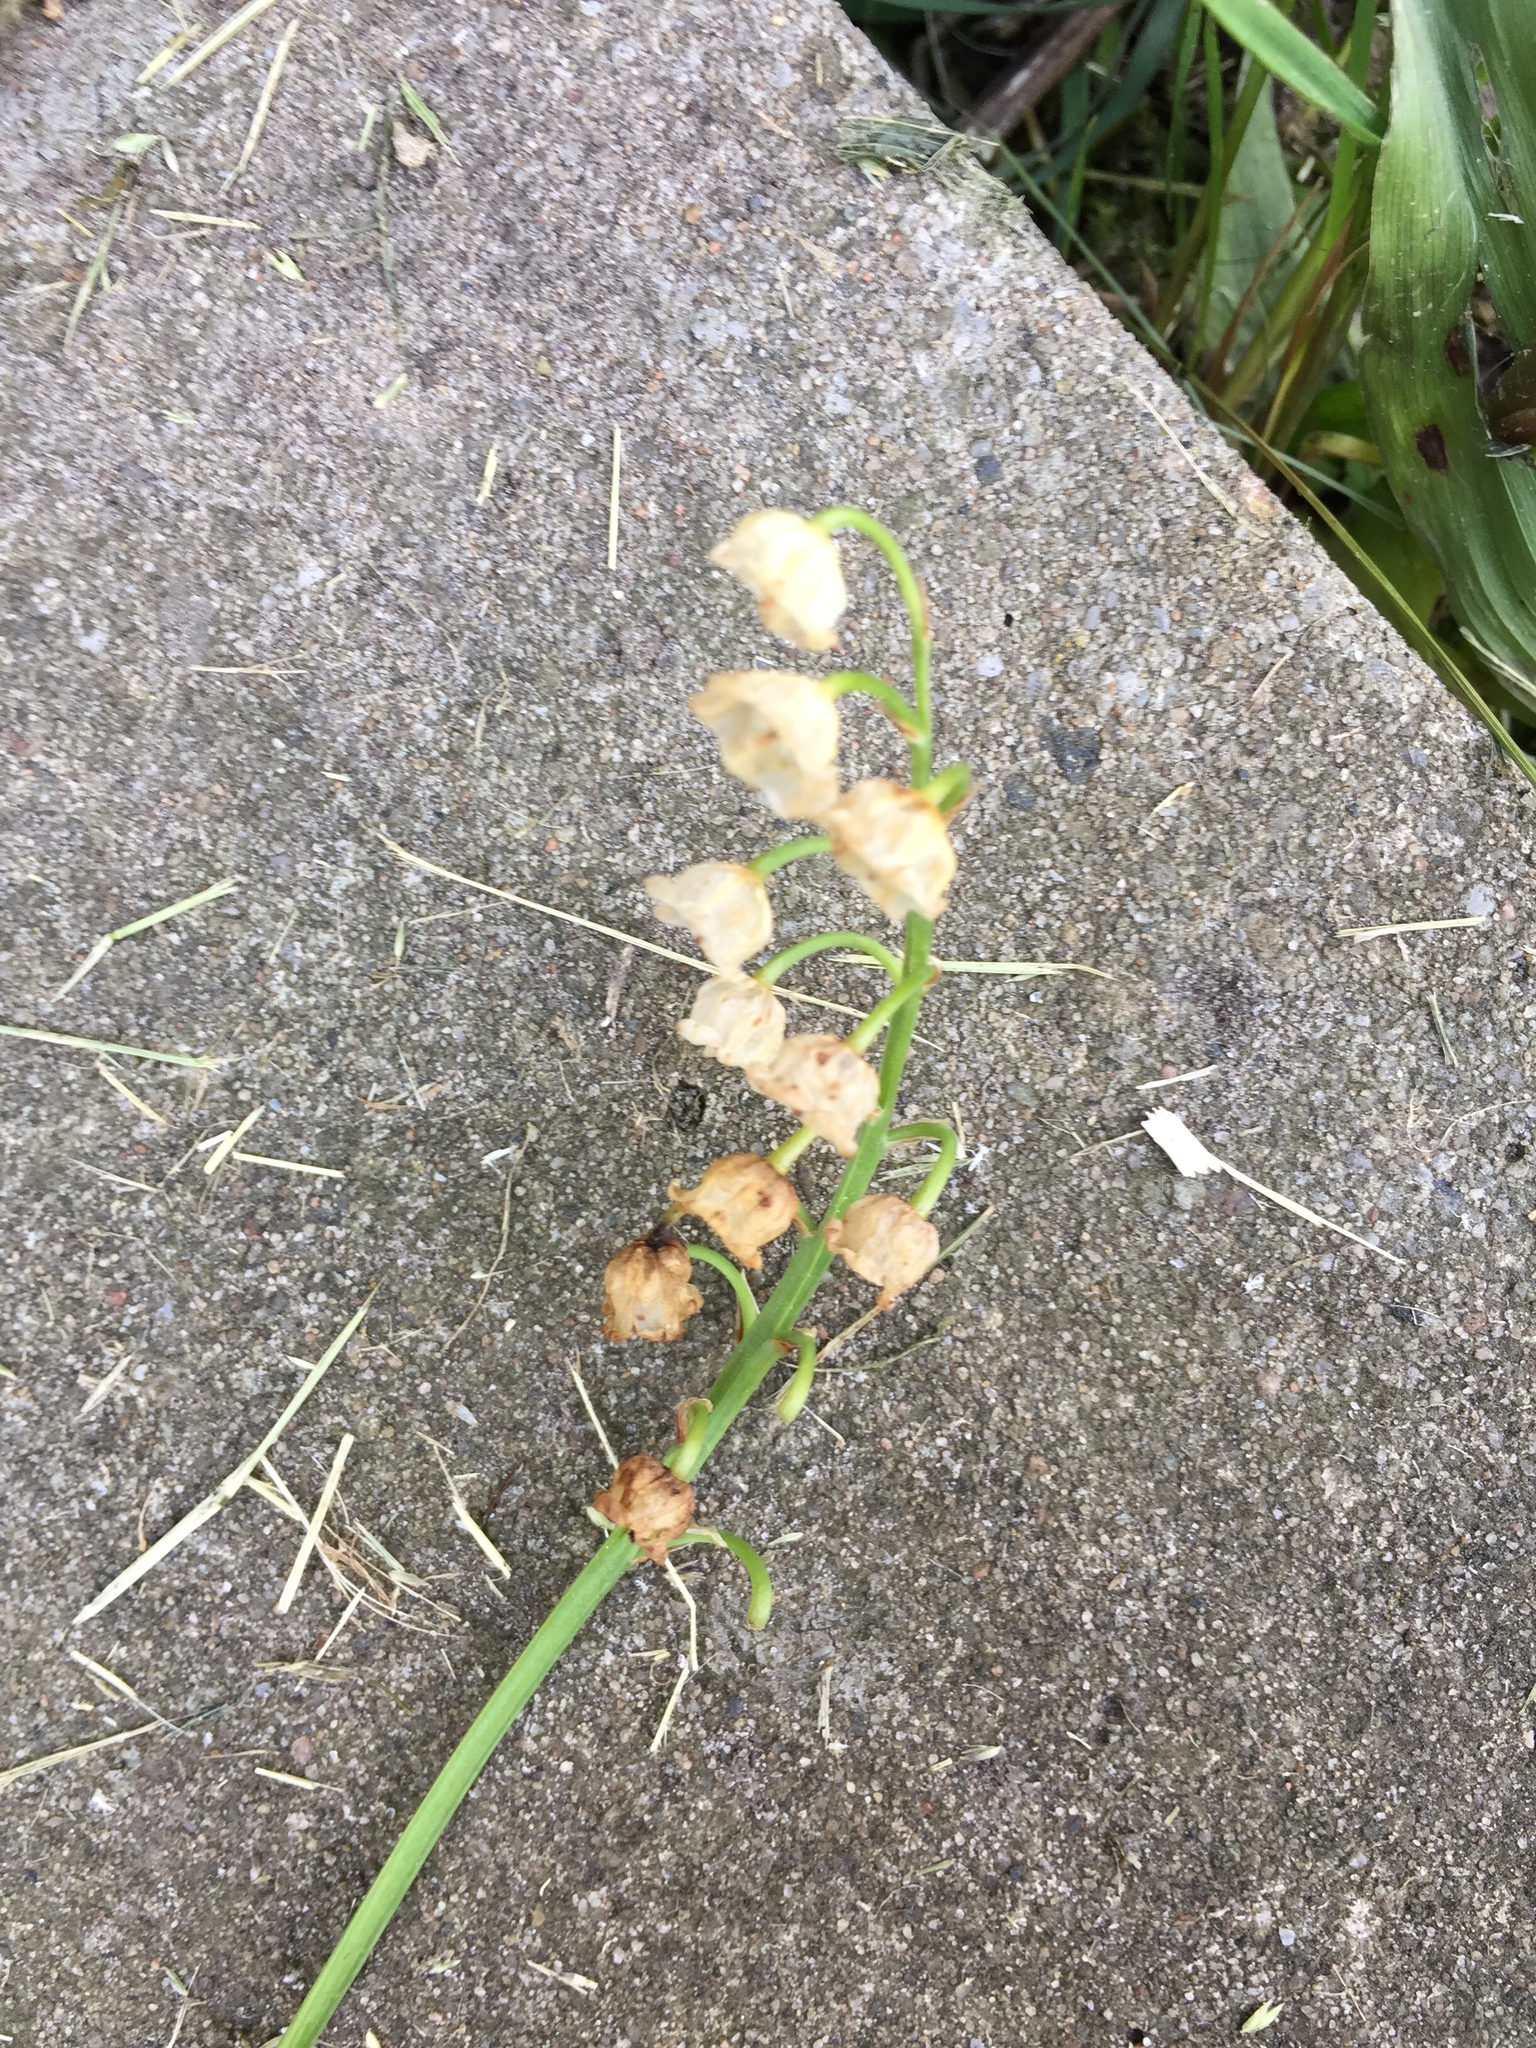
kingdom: Plantae
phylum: Tracheophyta
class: Liliopsida
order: Asparagales
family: Asparagaceae
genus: Convallaria
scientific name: Convallaria majalis
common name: Lily-of-the-valley
